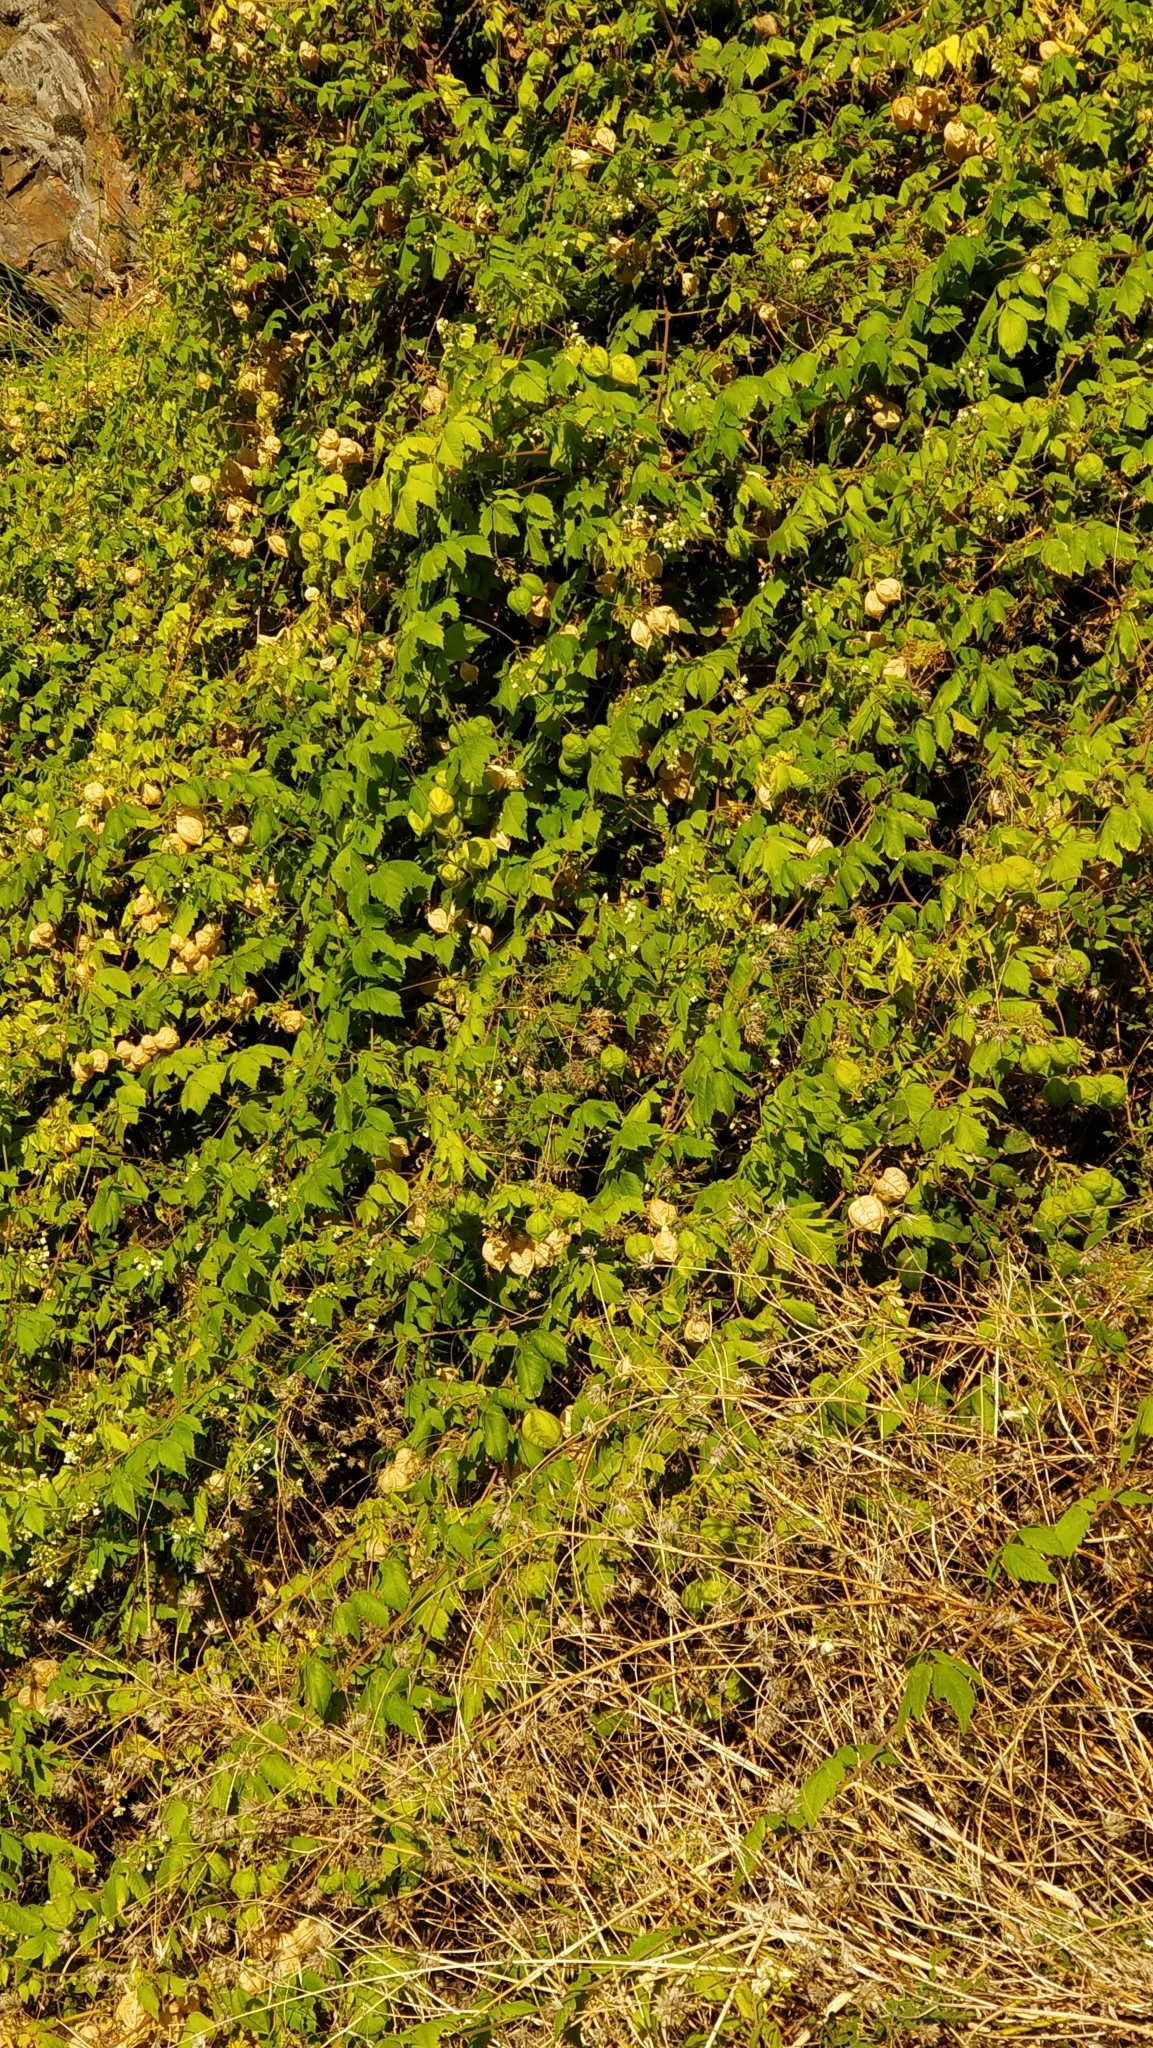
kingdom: Plantae
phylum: Tracheophyta
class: Magnoliopsida
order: Sapindales
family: Sapindaceae
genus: Cardiospermum
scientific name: Cardiospermum grandiflorum
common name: Balloon vine
